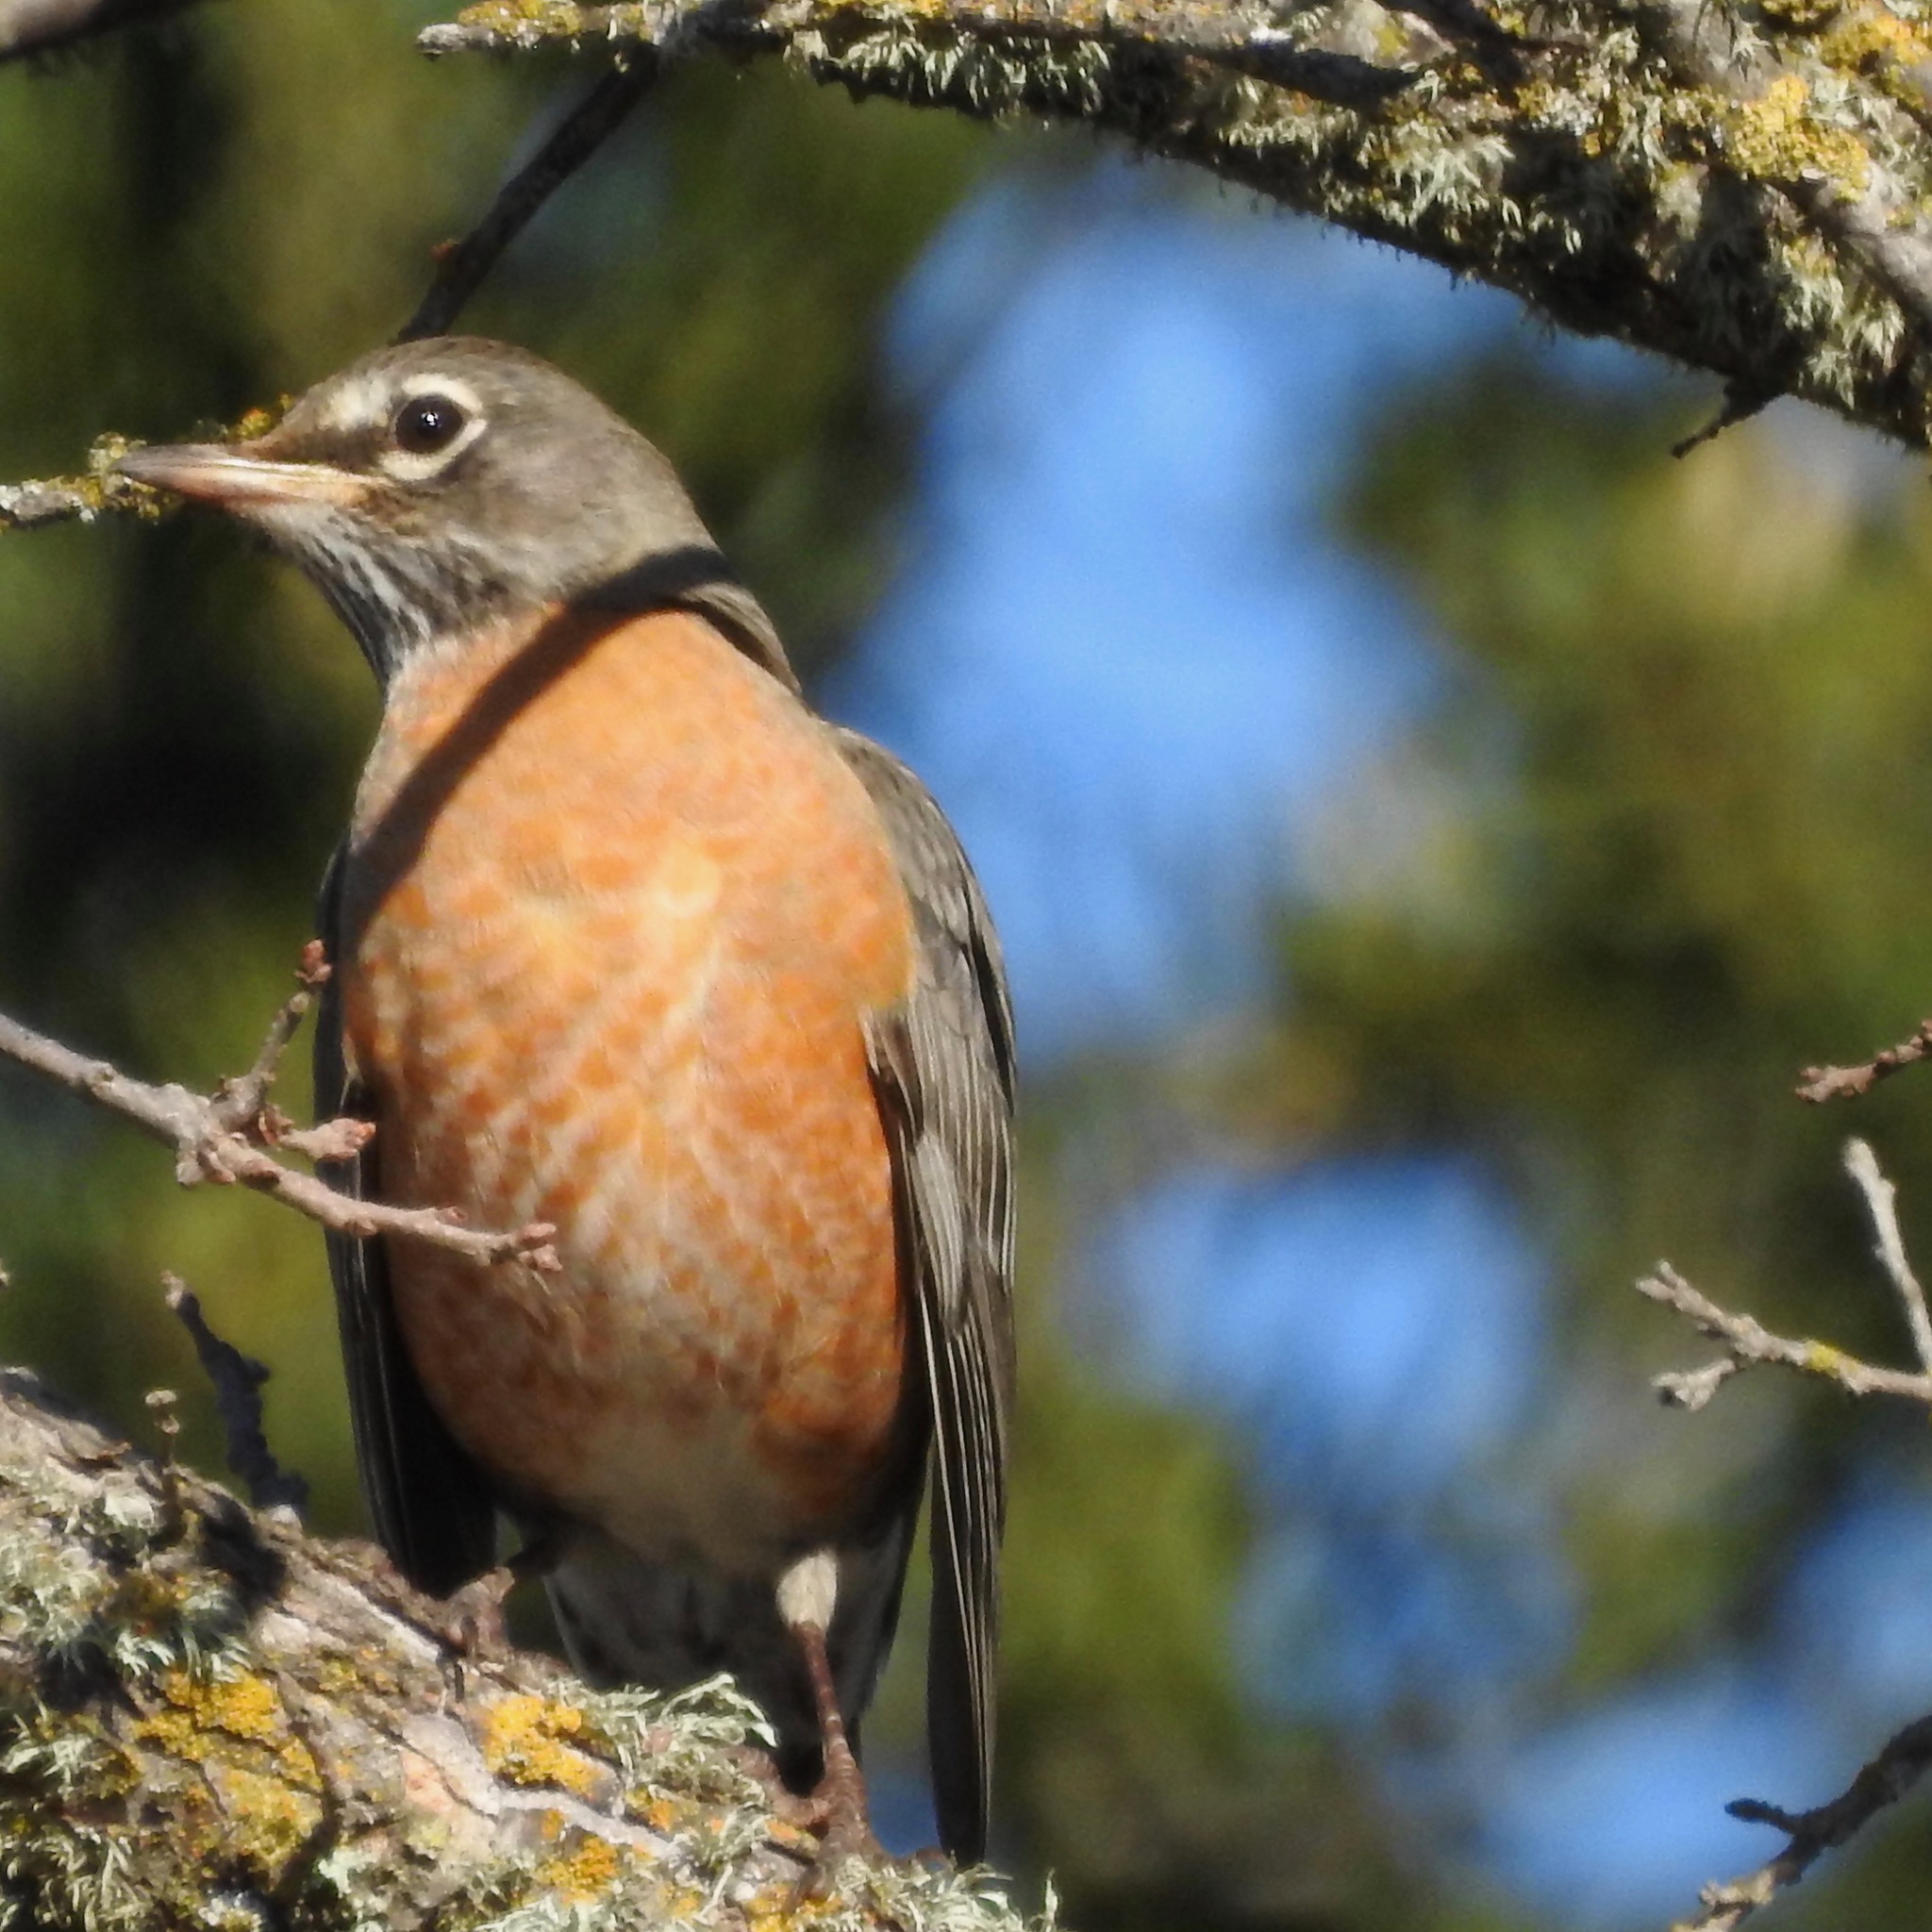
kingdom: Animalia
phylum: Chordata
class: Aves
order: Passeriformes
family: Turdidae
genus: Turdus
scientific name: Turdus migratorius
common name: American robin
